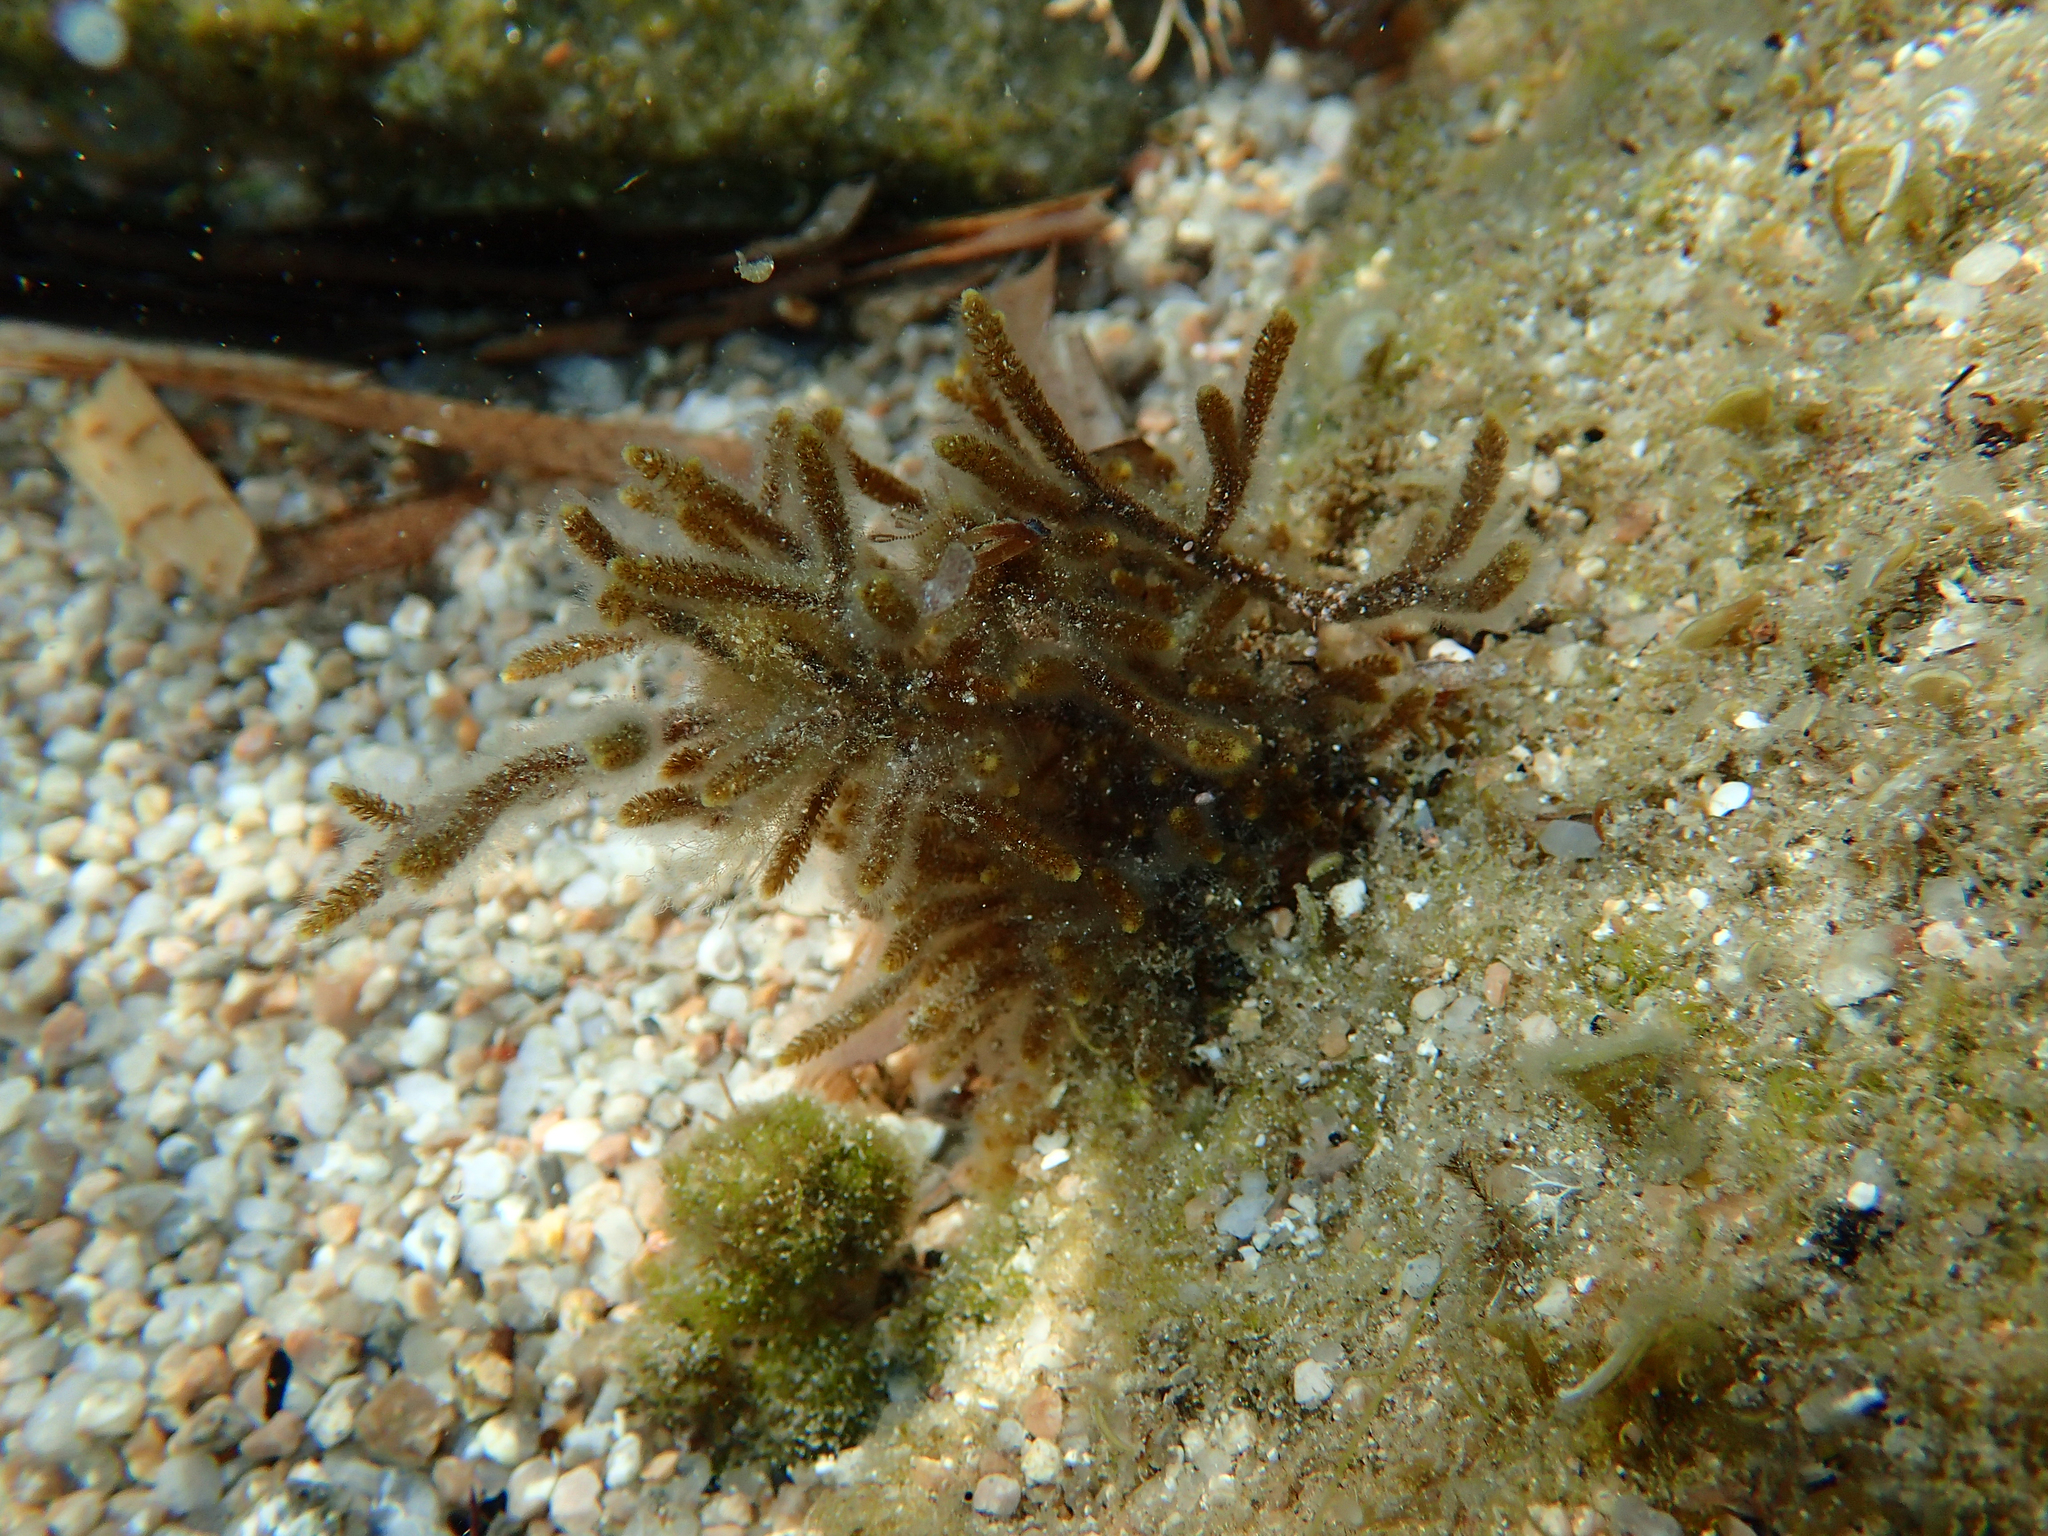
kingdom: Chromista
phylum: Ochrophyta
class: Phaeophyceae
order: Sphacelariales
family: Cladostephaceae
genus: Cladostephus
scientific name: Cladostephus hirsutus
